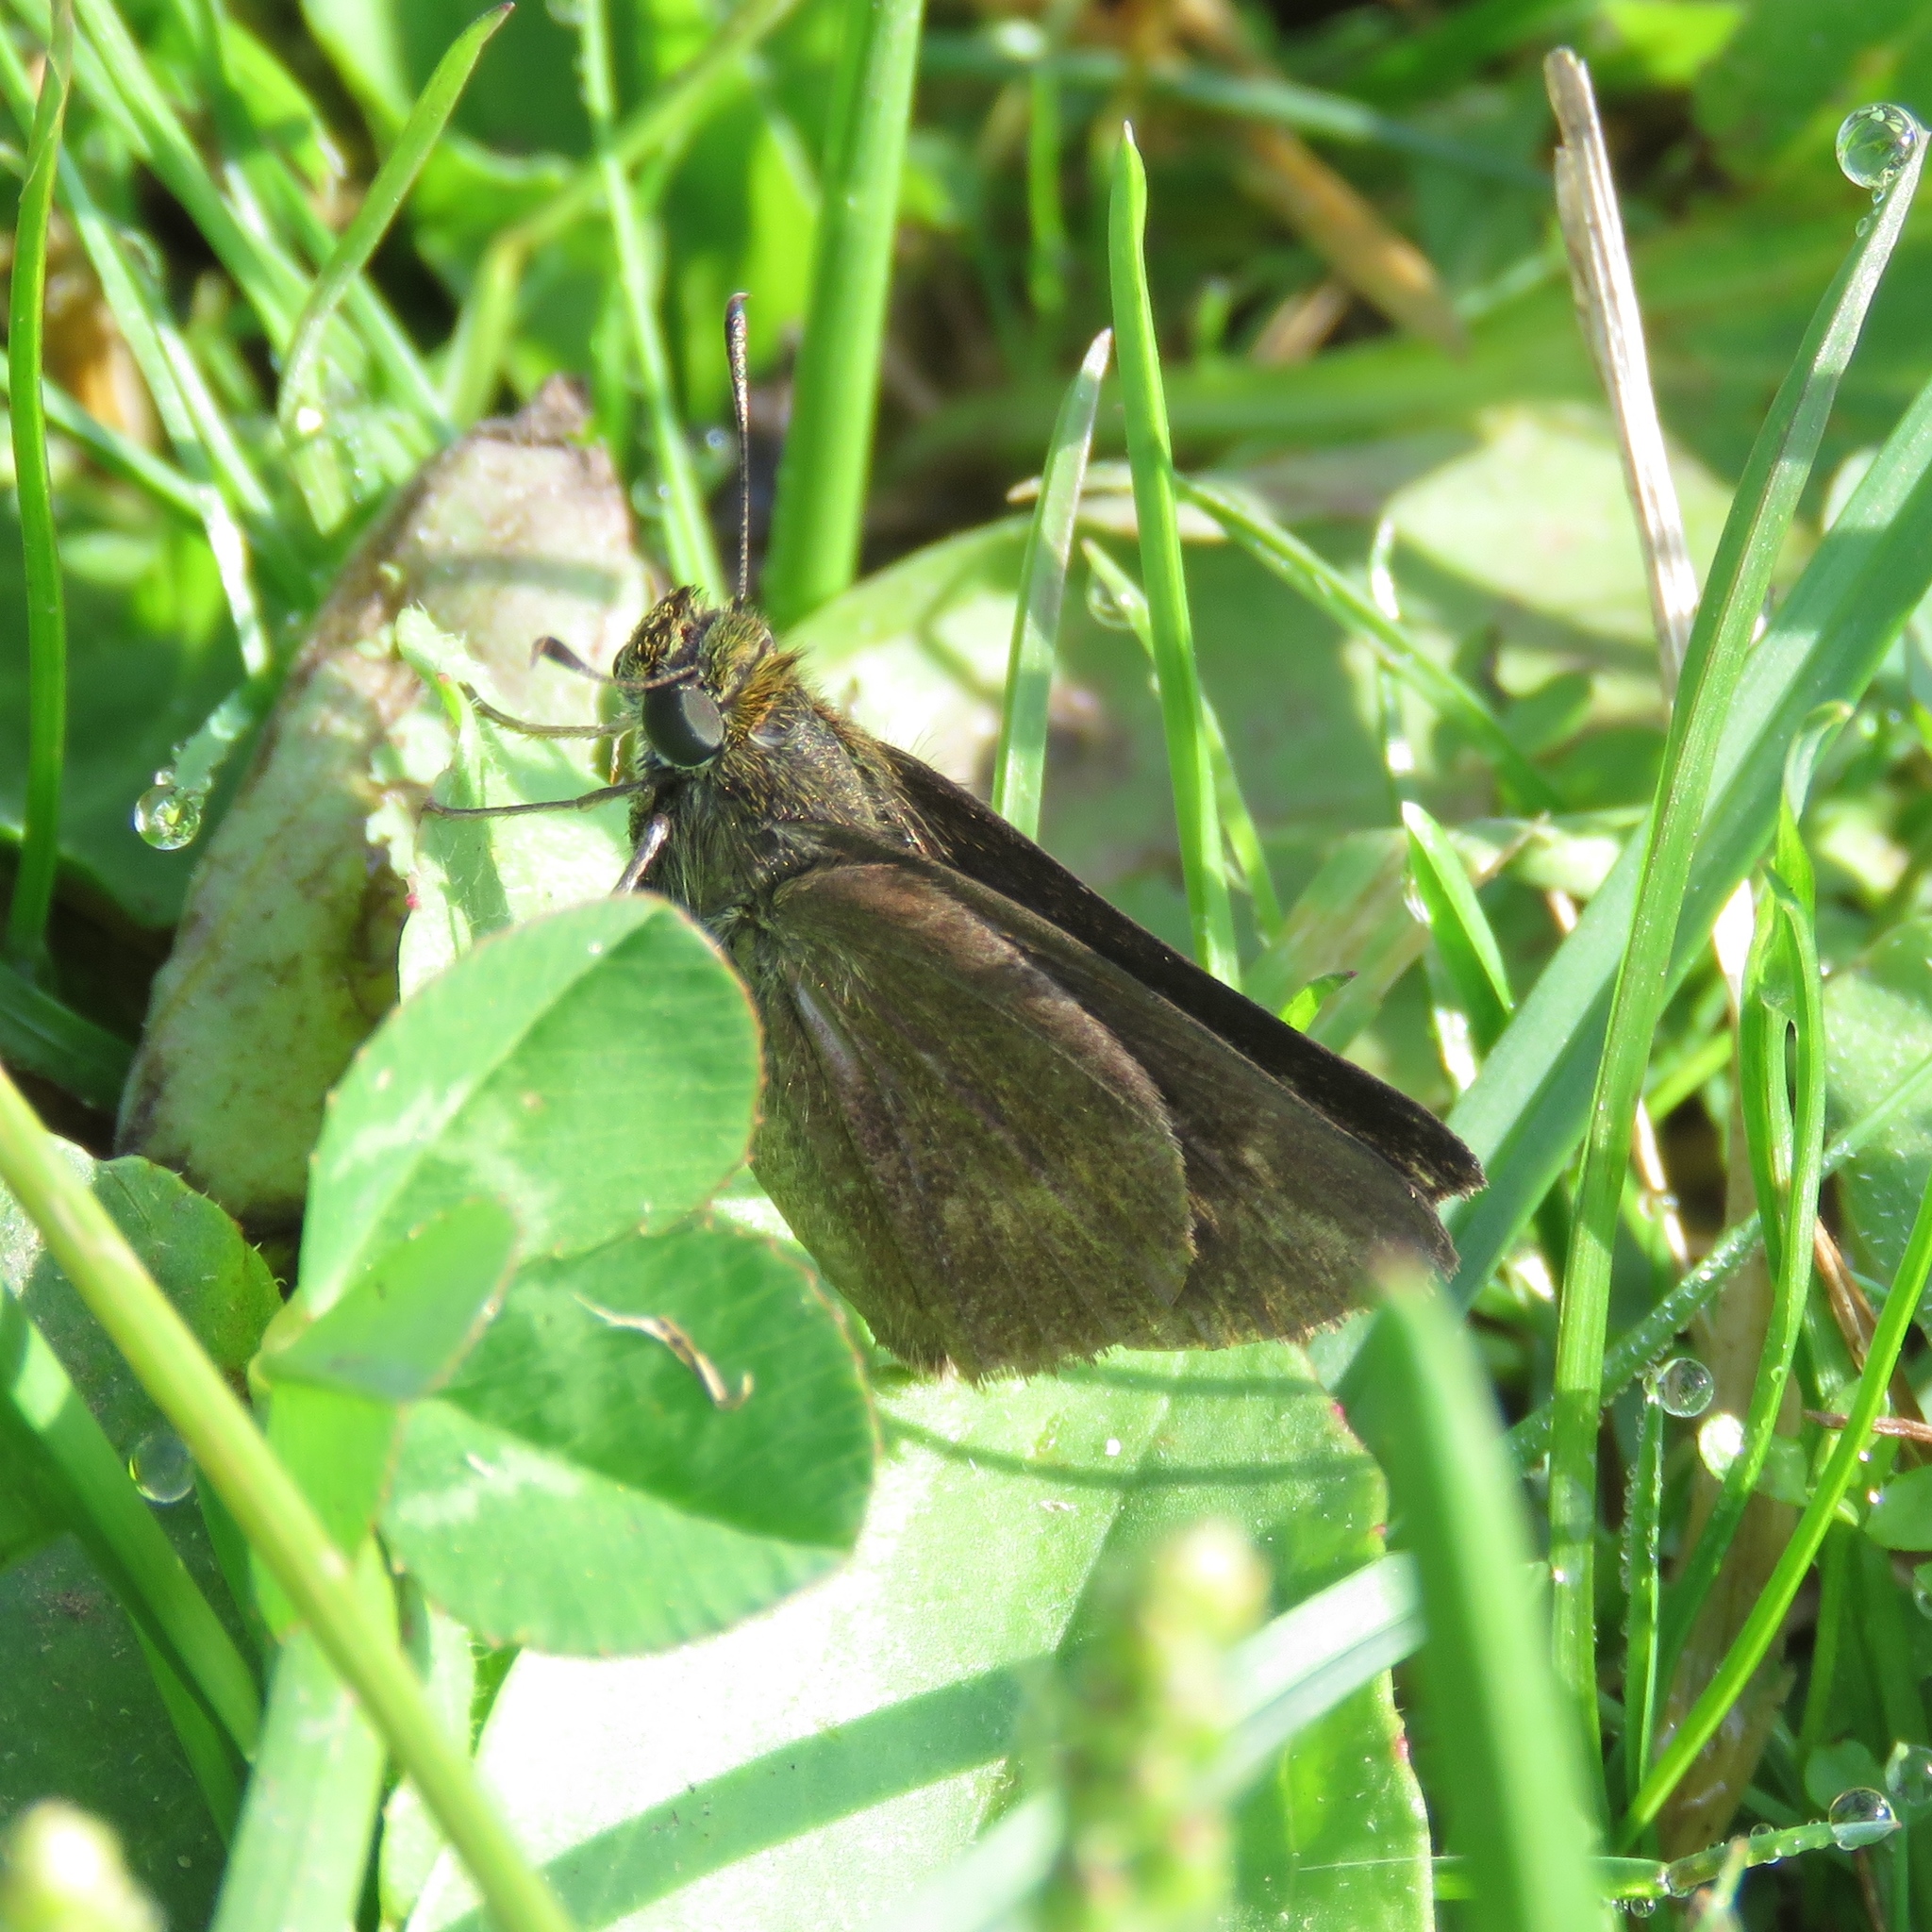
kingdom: Animalia
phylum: Arthropoda
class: Insecta
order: Lepidoptera
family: Hesperiidae
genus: Euphyes
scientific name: Euphyes vestris
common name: Dun skipper
